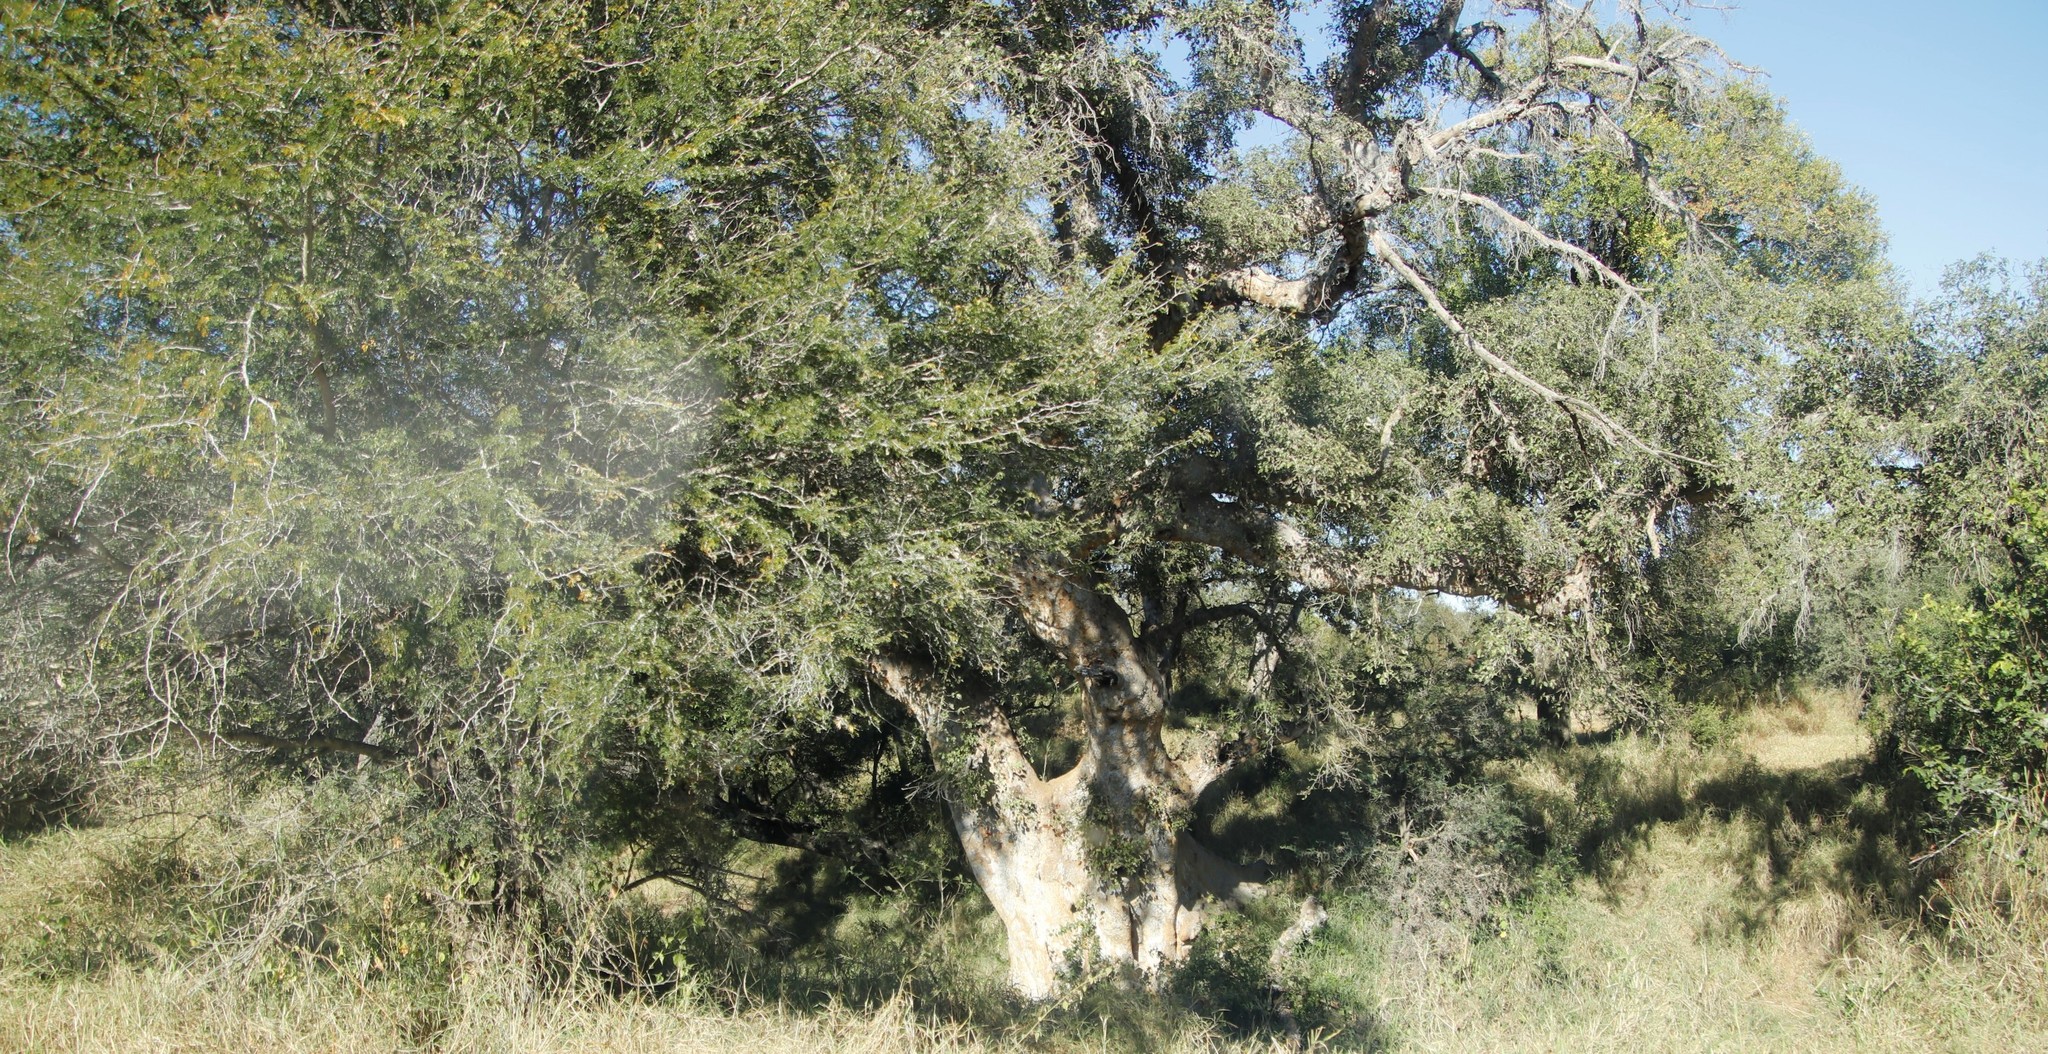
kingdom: Plantae
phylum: Tracheophyta
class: Magnoliopsida
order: Rosales
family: Moraceae
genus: Ficus
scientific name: Ficus sycomorus
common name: Sycomore
